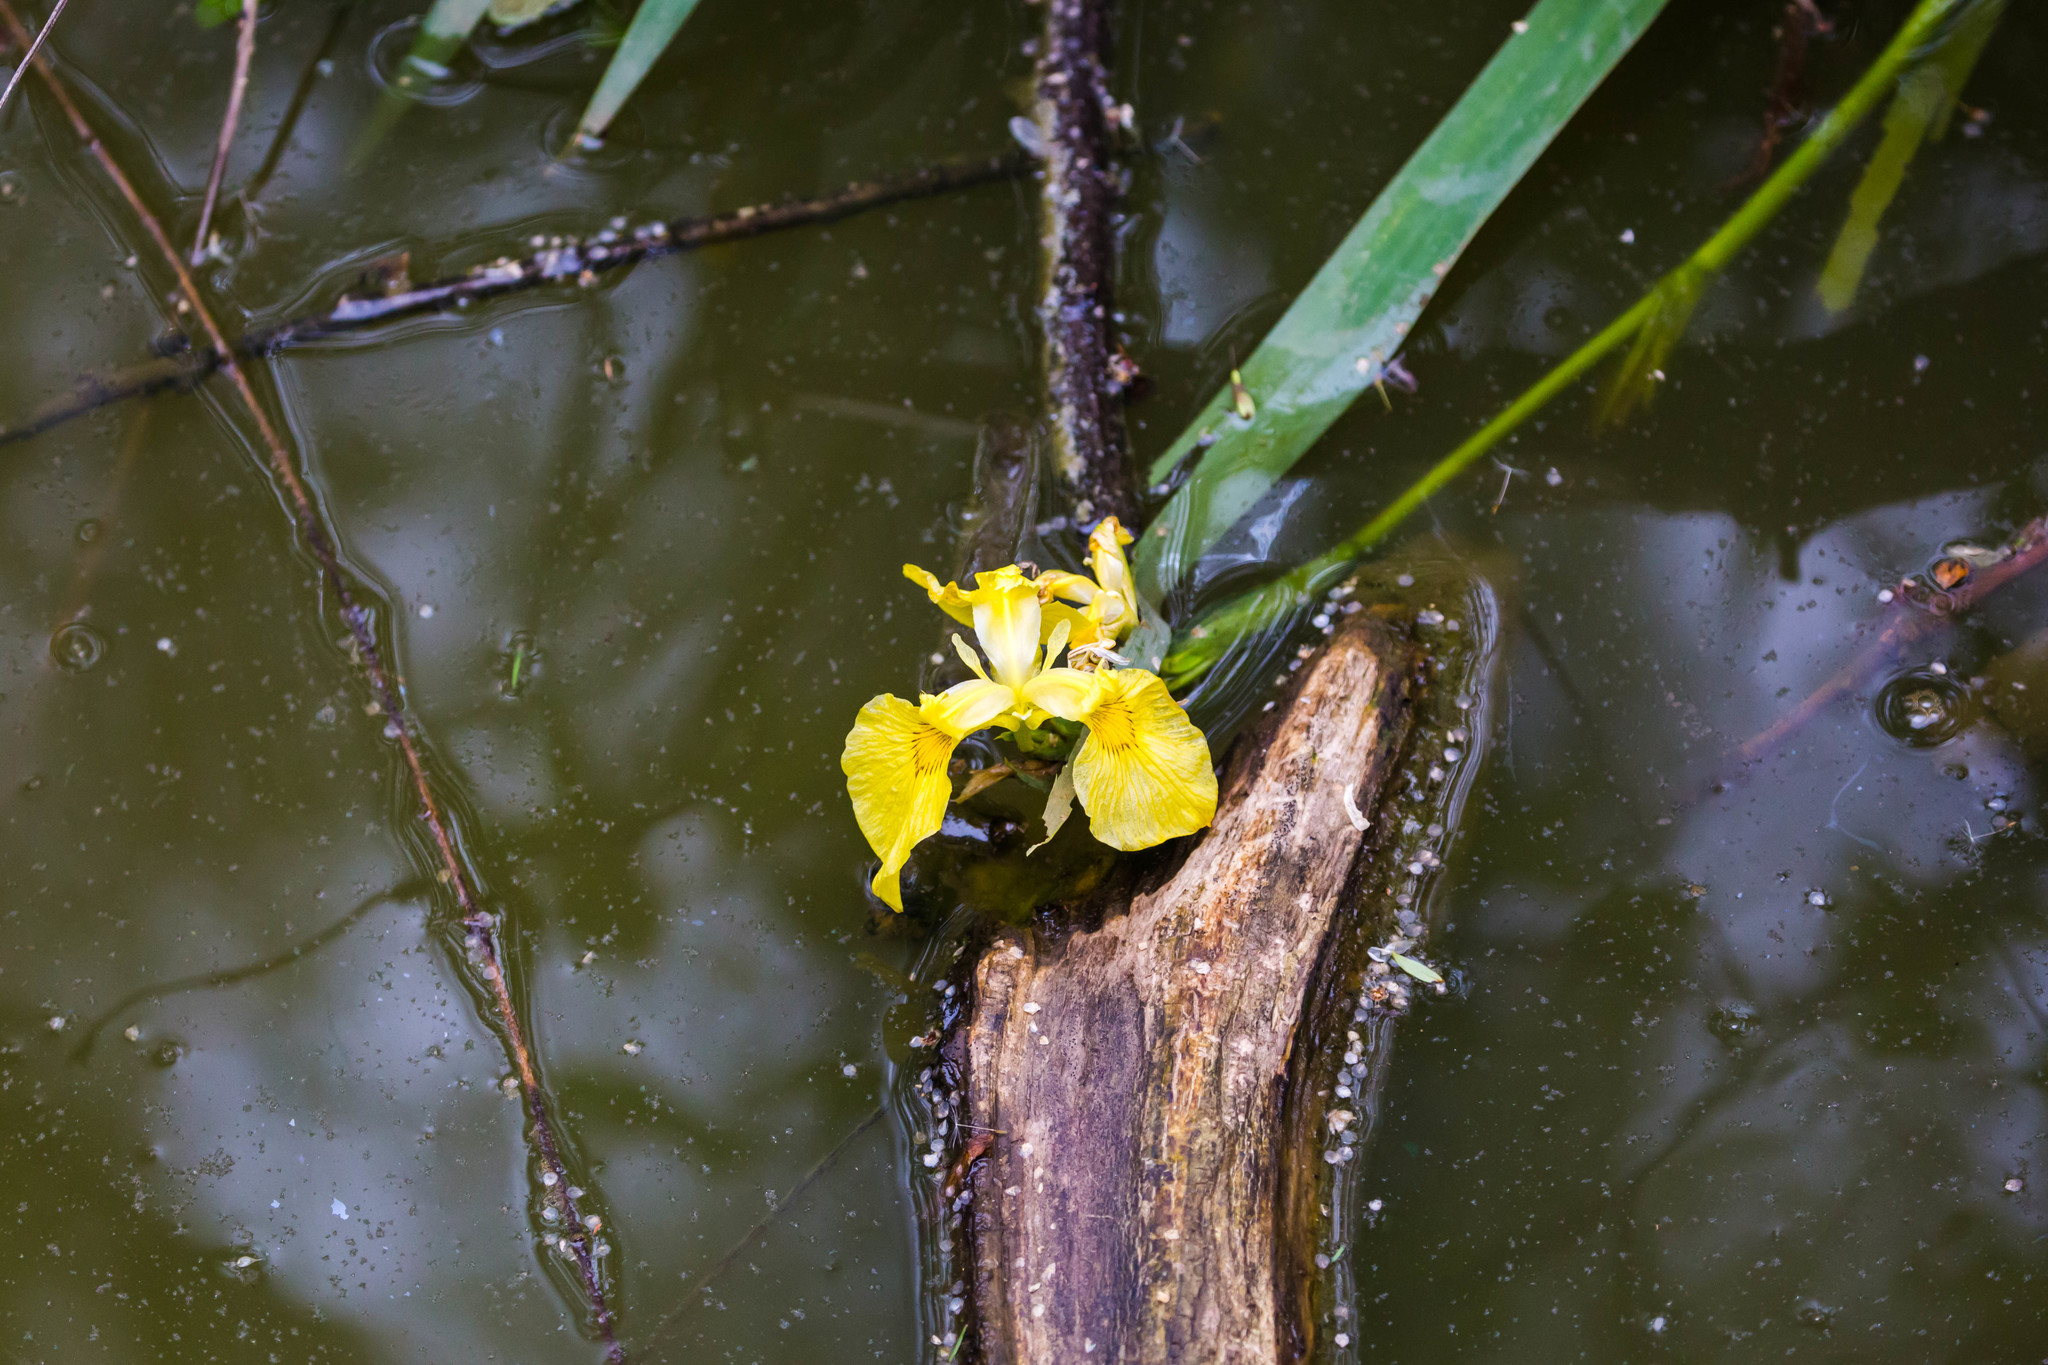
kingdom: Plantae
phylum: Tracheophyta
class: Liliopsida
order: Asparagales
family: Iridaceae
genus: Iris
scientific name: Iris pseudacorus
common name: Yellow flag
